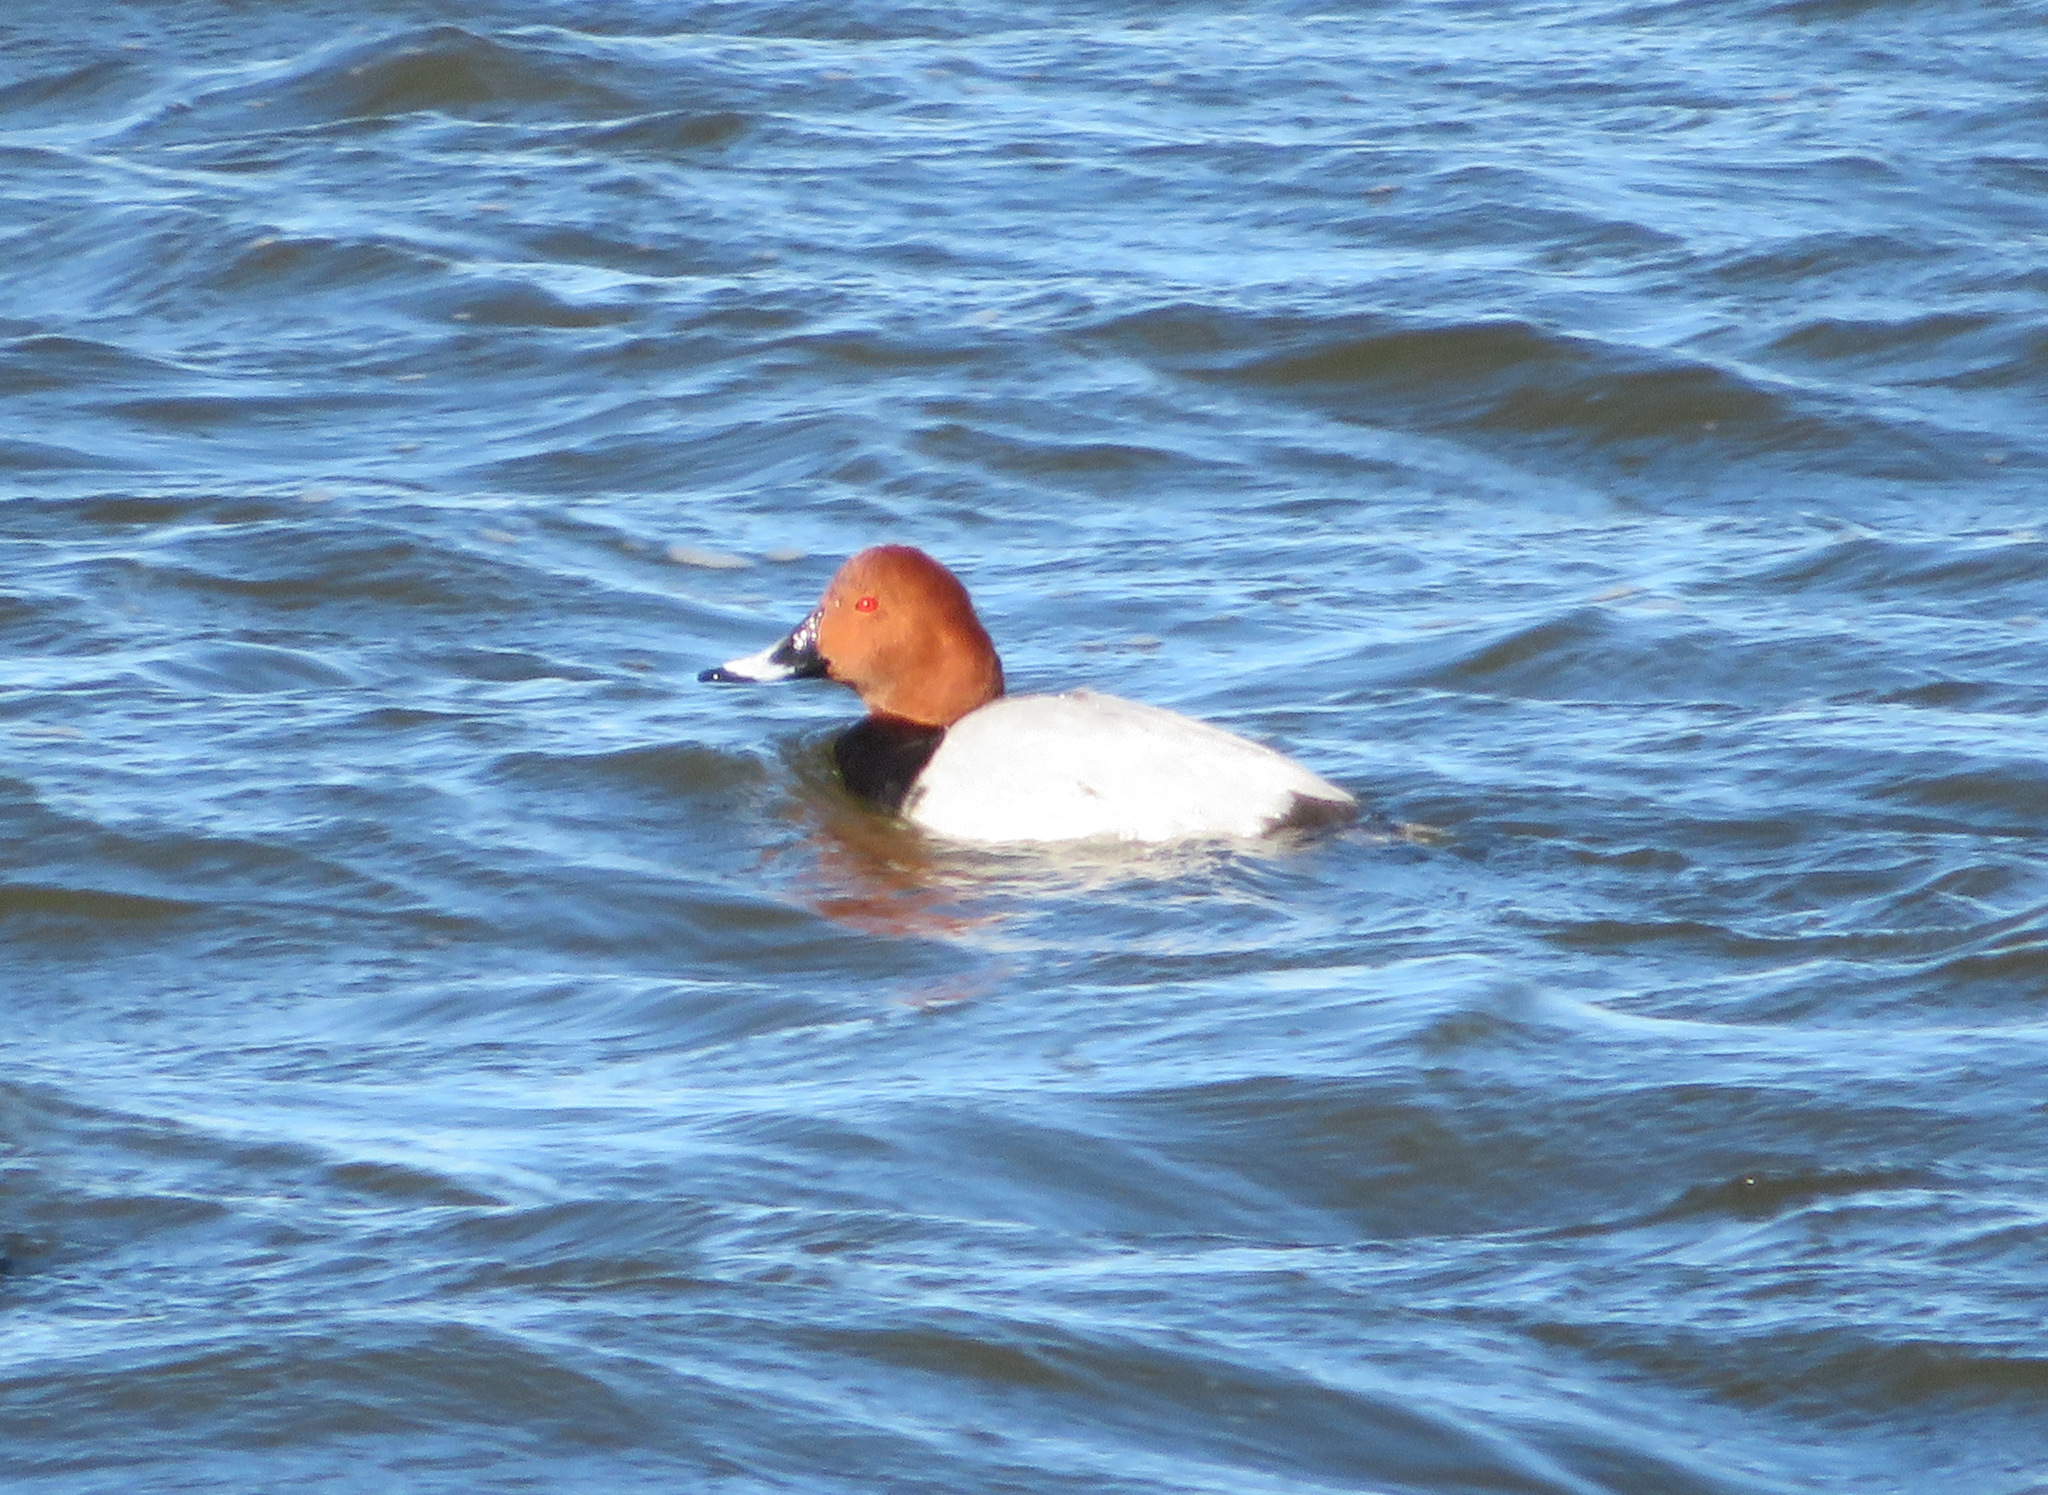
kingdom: Animalia
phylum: Chordata
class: Aves
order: Anseriformes
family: Anatidae
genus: Aythya
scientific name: Aythya ferina
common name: Common pochard
